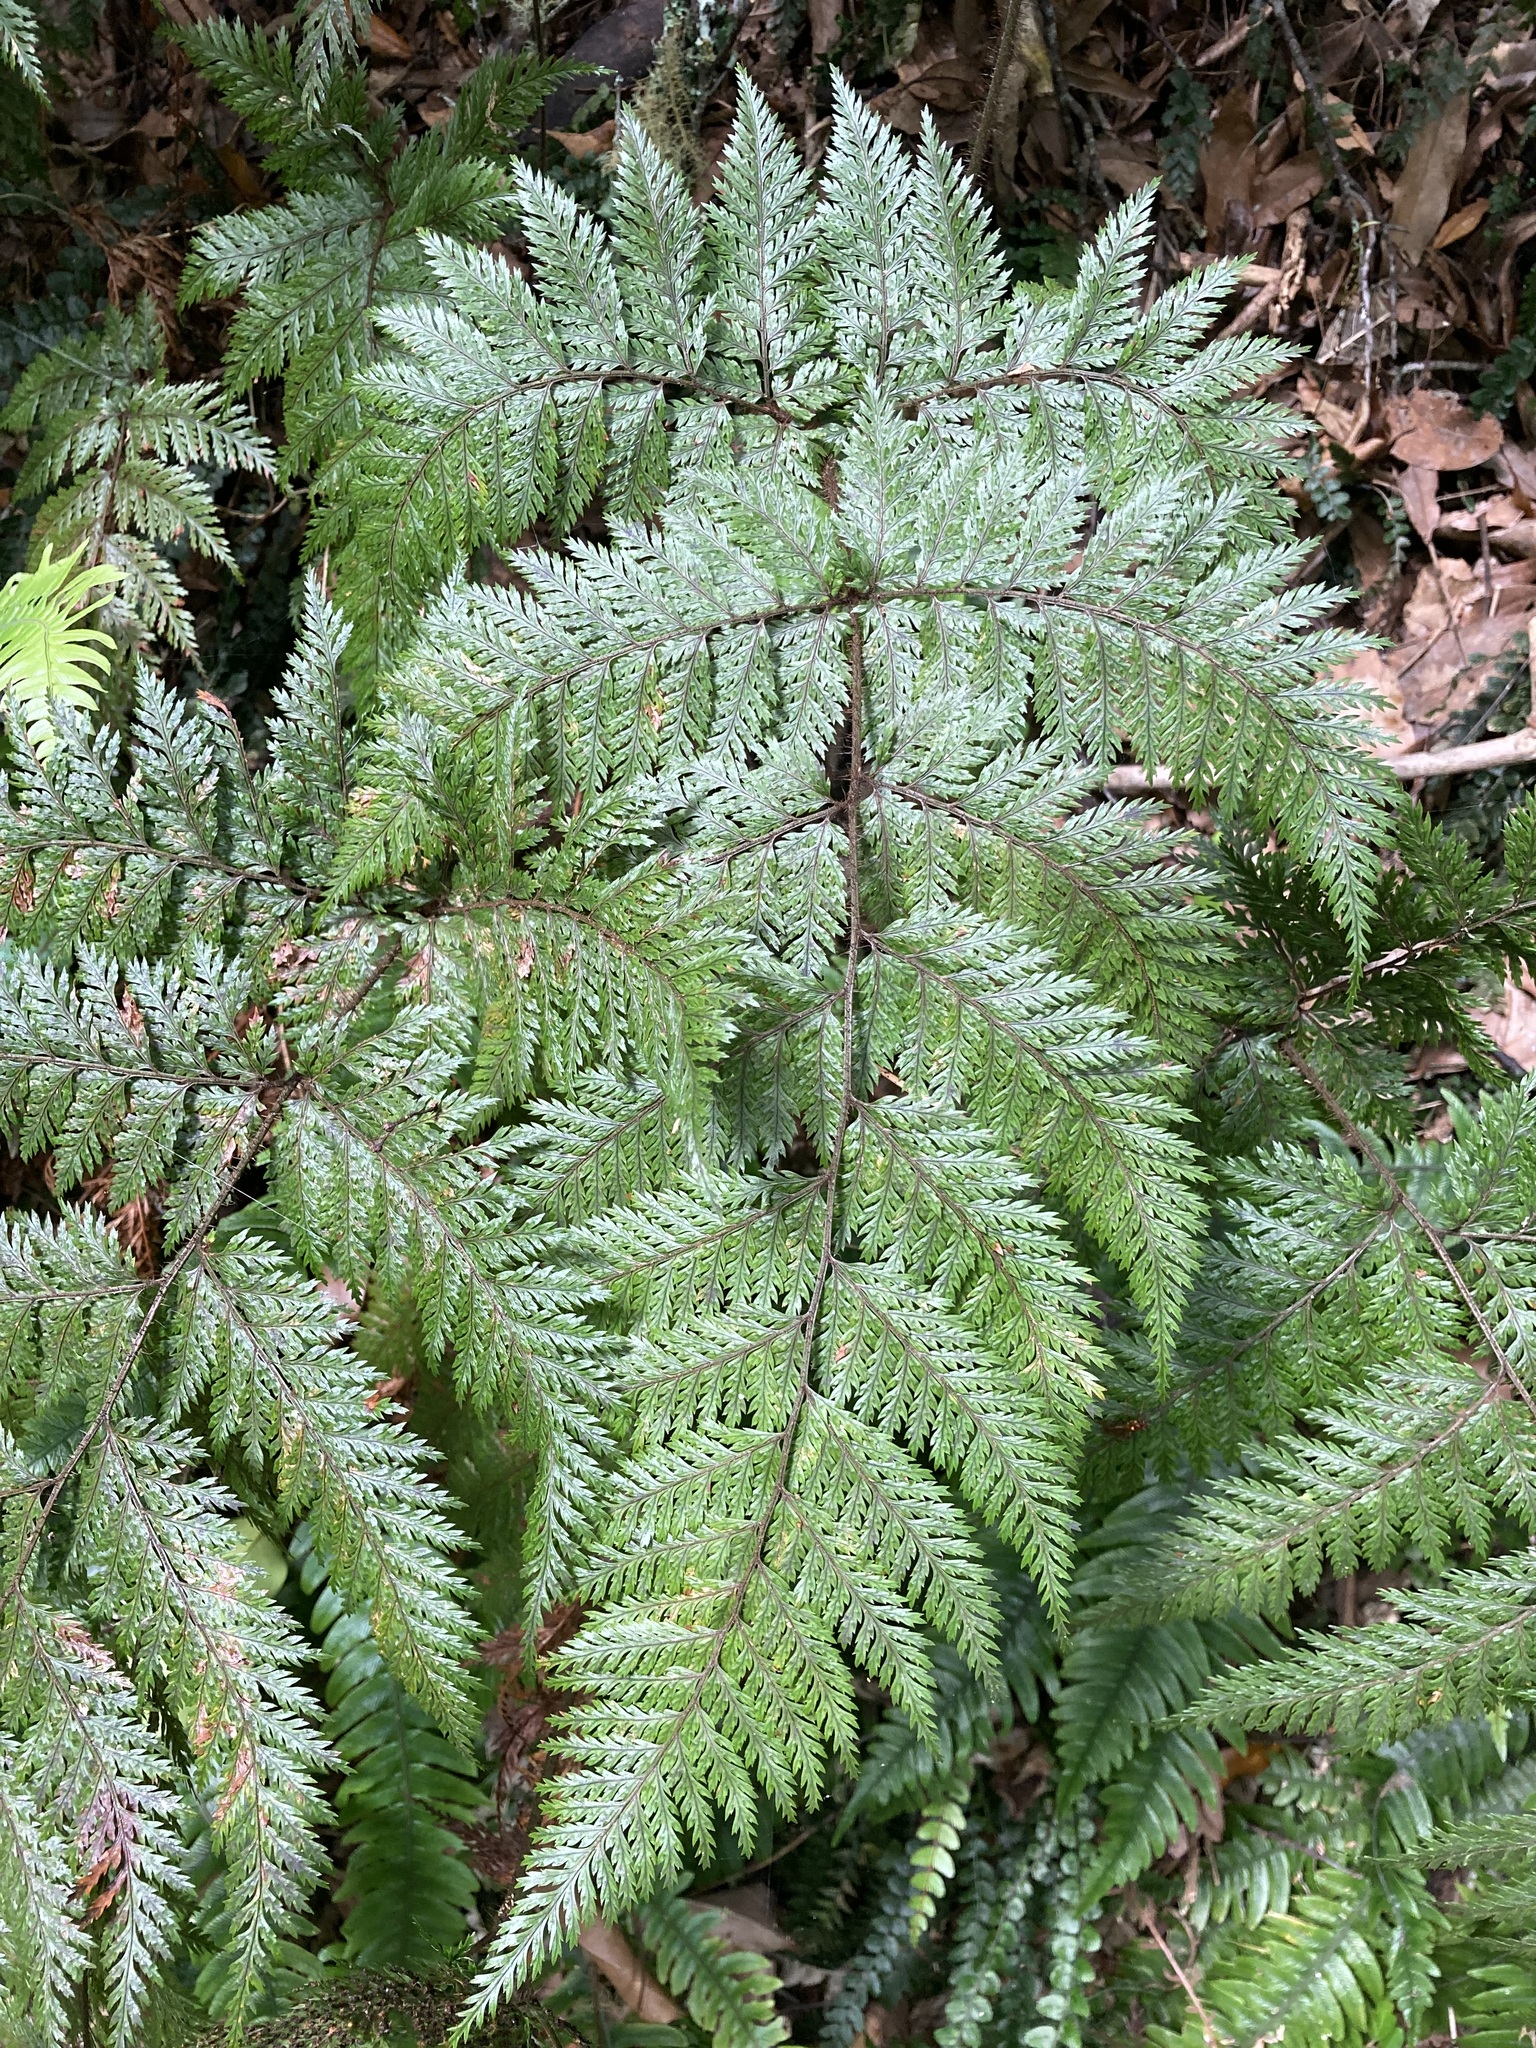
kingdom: Plantae
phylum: Tracheophyta
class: Polypodiopsida
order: Polypodiales
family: Dryopteridaceae
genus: Lastreopsis
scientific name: Lastreopsis hispida
